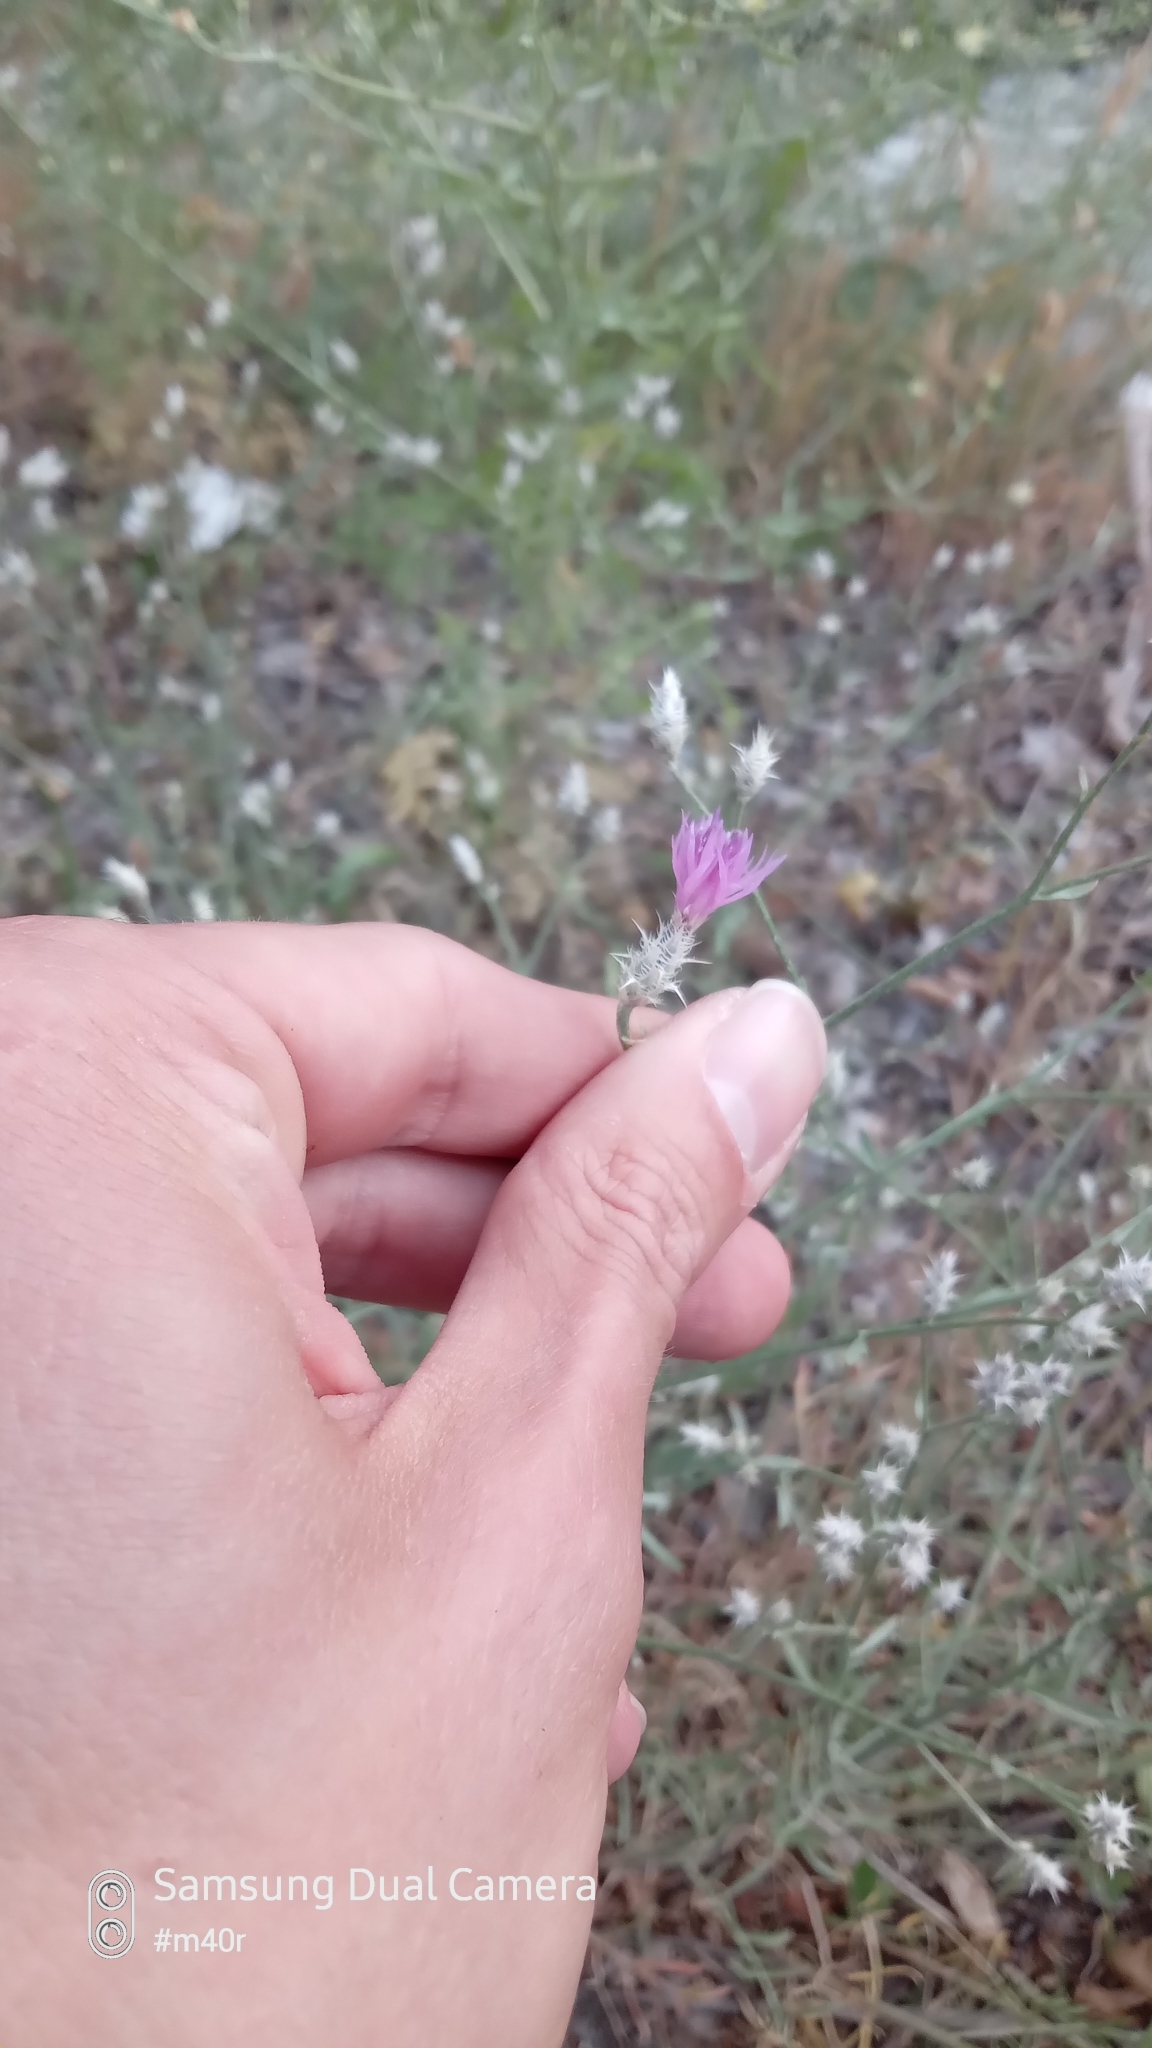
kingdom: Plantae
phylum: Tracheophyta
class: Magnoliopsida
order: Asterales
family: Asteraceae
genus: Centaurea
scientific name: Centaurea virgata
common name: Squarrose knapweed
